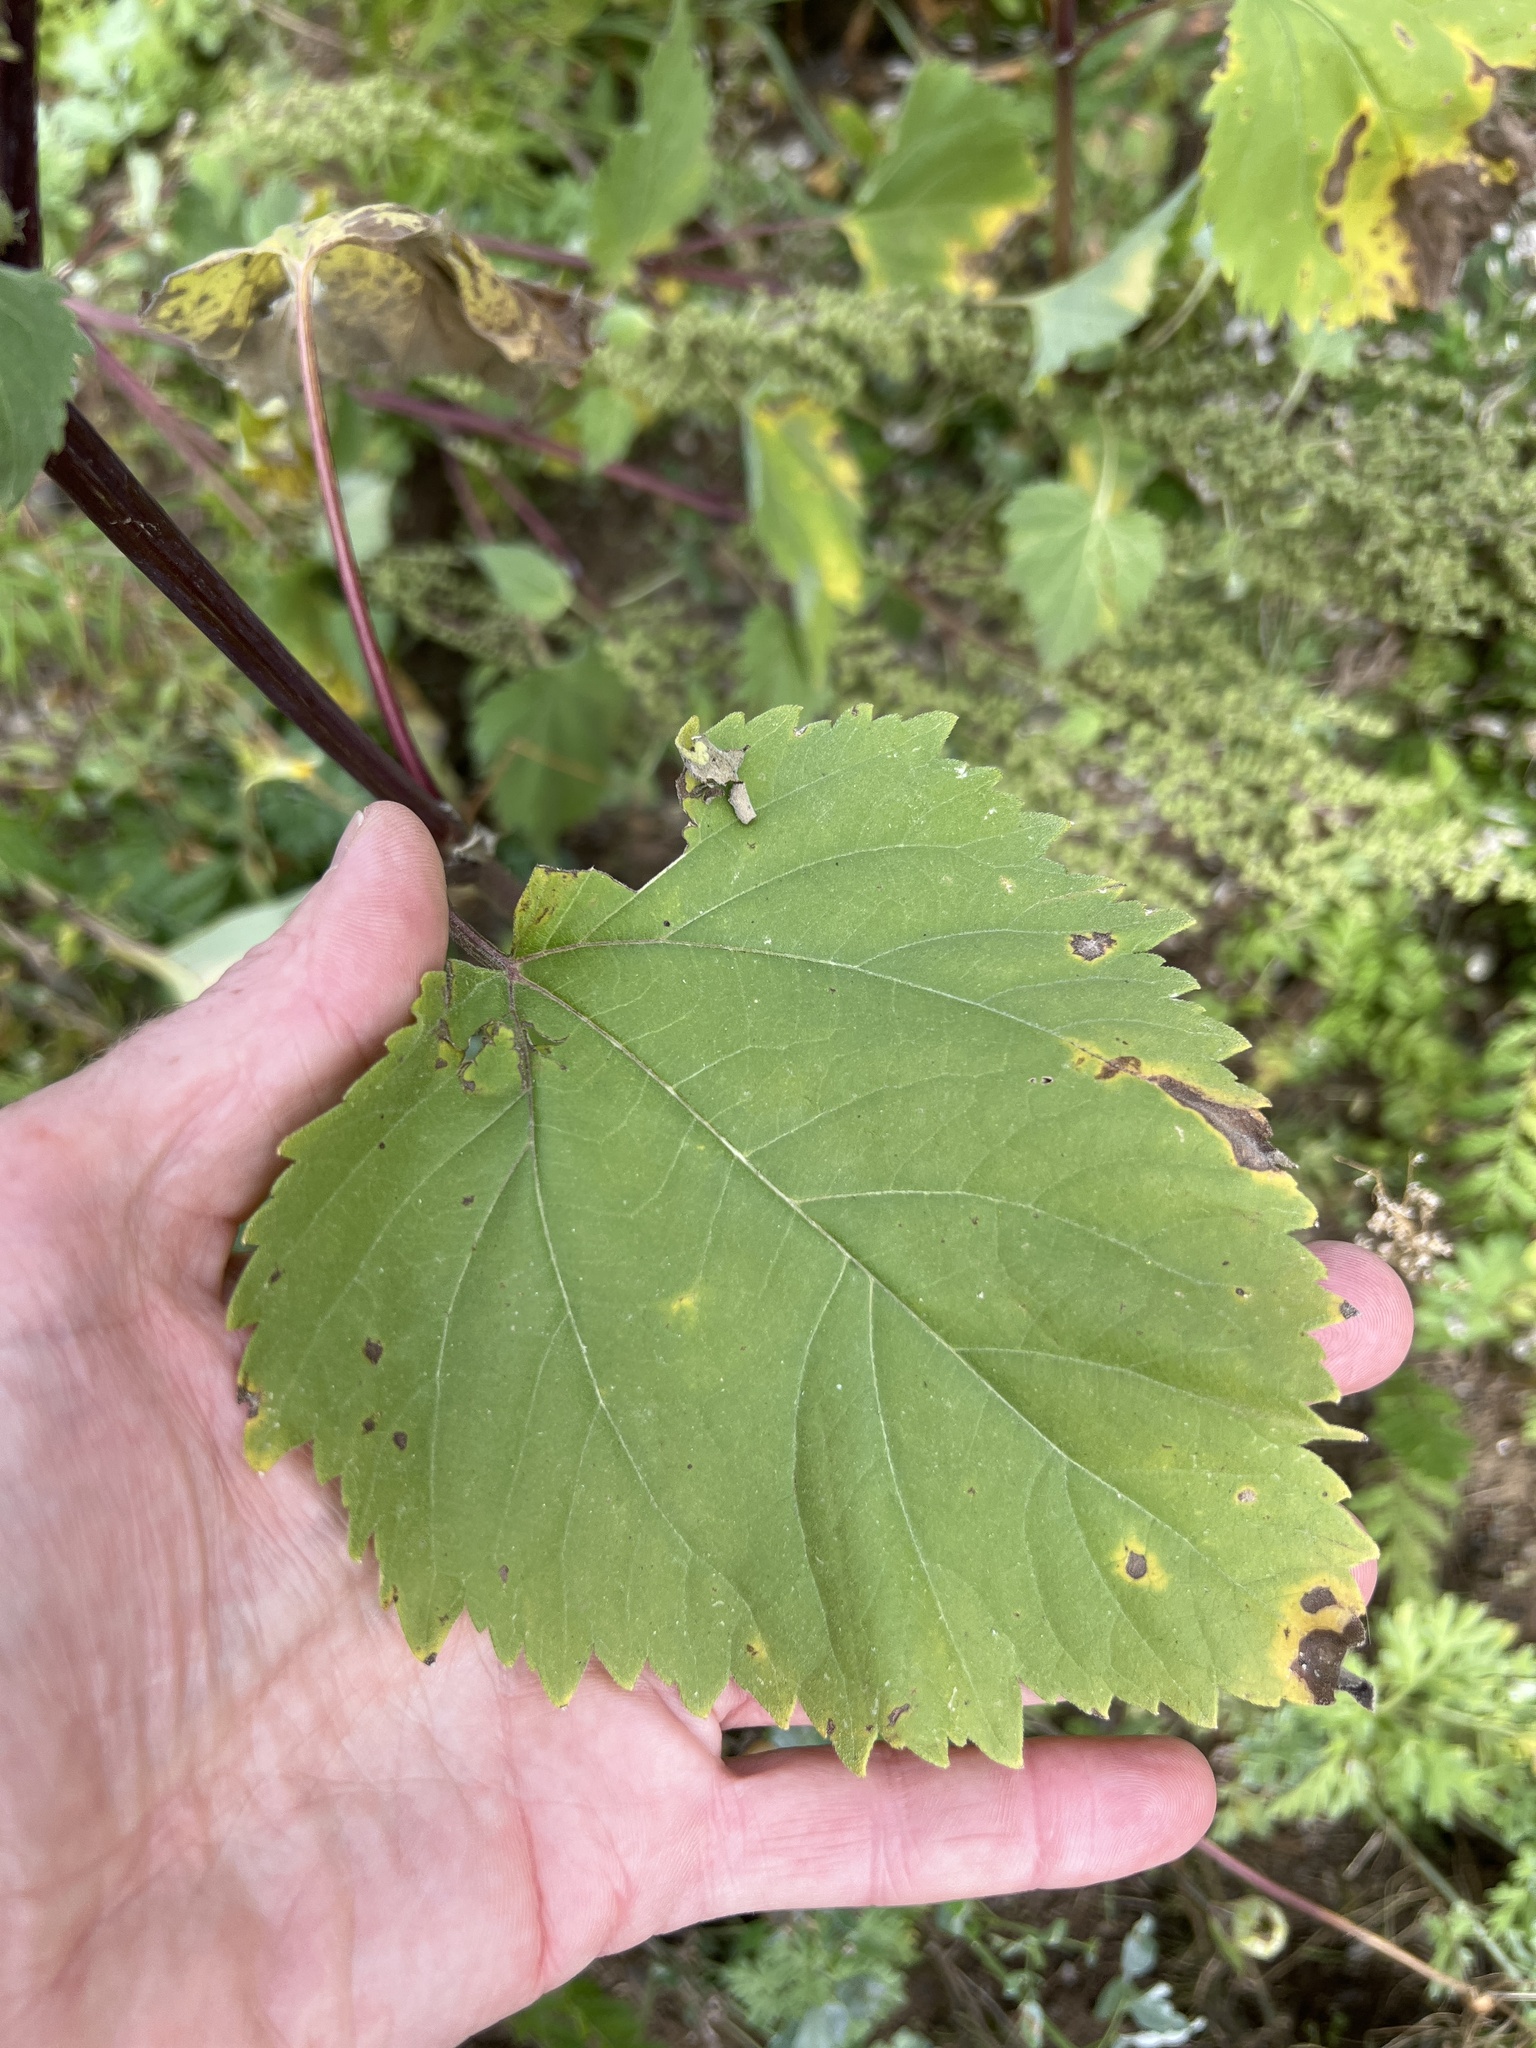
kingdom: Plantae
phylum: Tracheophyta
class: Magnoliopsida
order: Asterales
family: Asteraceae
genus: Cyclachaena
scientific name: Cyclachaena xanthiifolia
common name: Giant sumpweed
